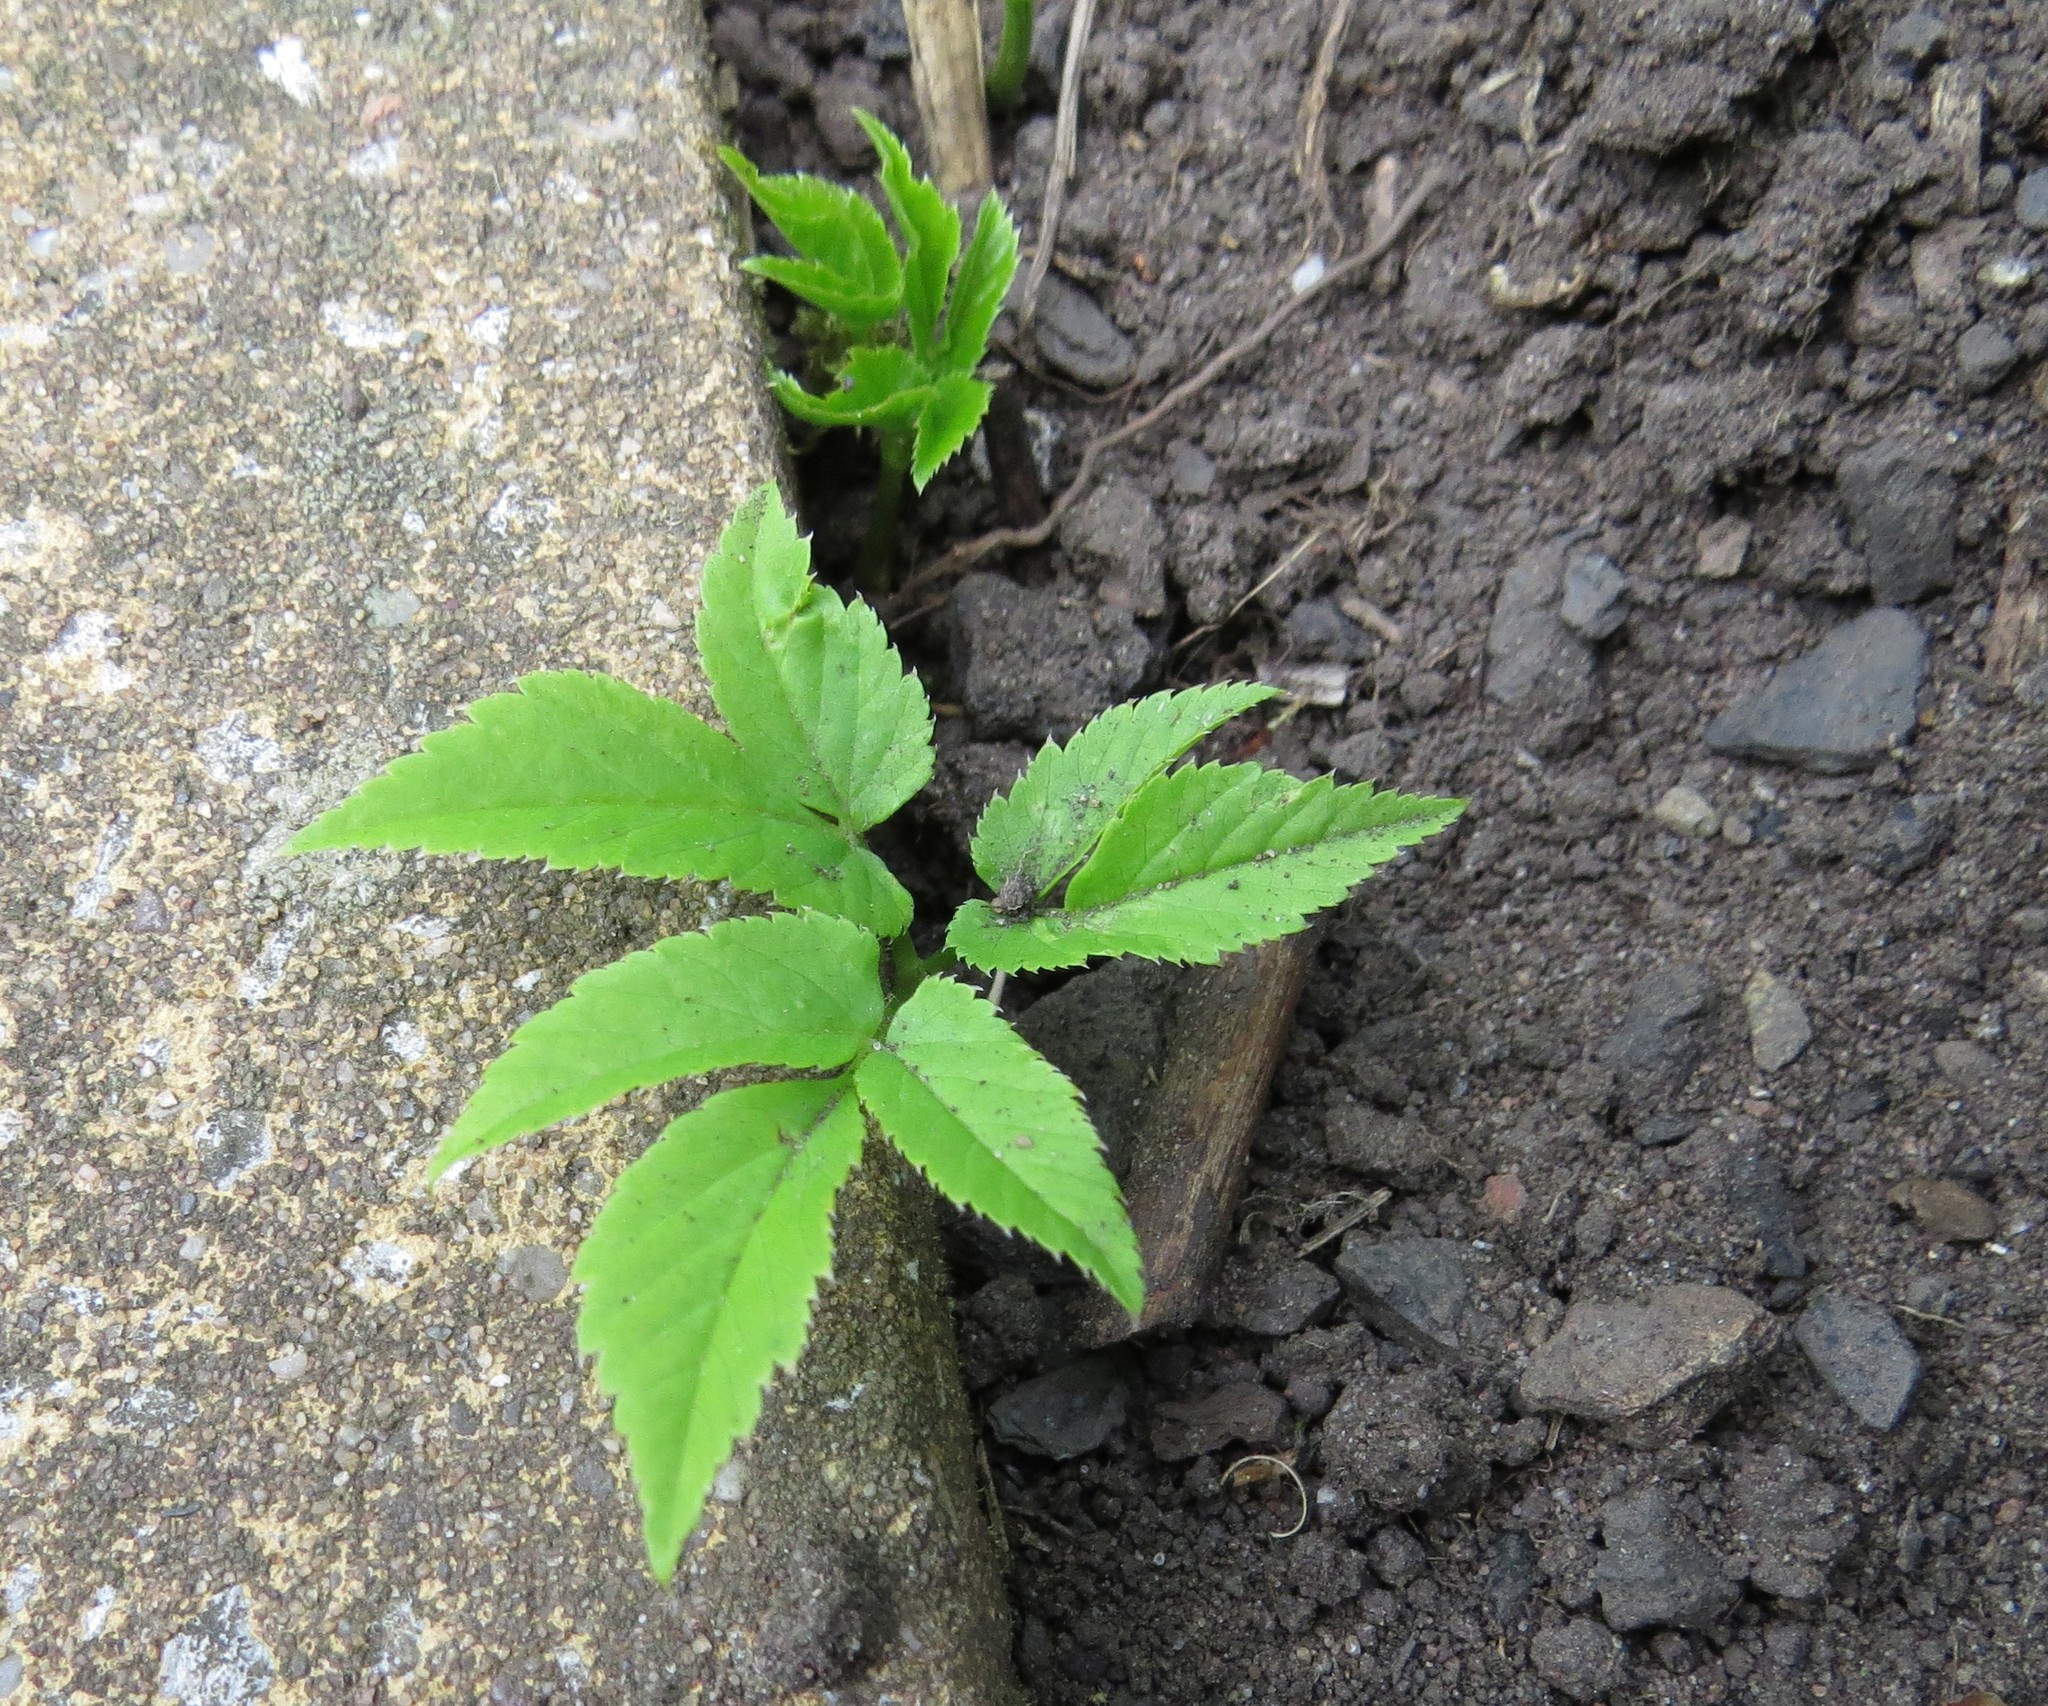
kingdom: Plantae
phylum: Tracheophyta
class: Magnoliopsida
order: Apiales
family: Apiaceae
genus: Aegopodium
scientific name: Aegopodium podagraria
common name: Ground-elder
